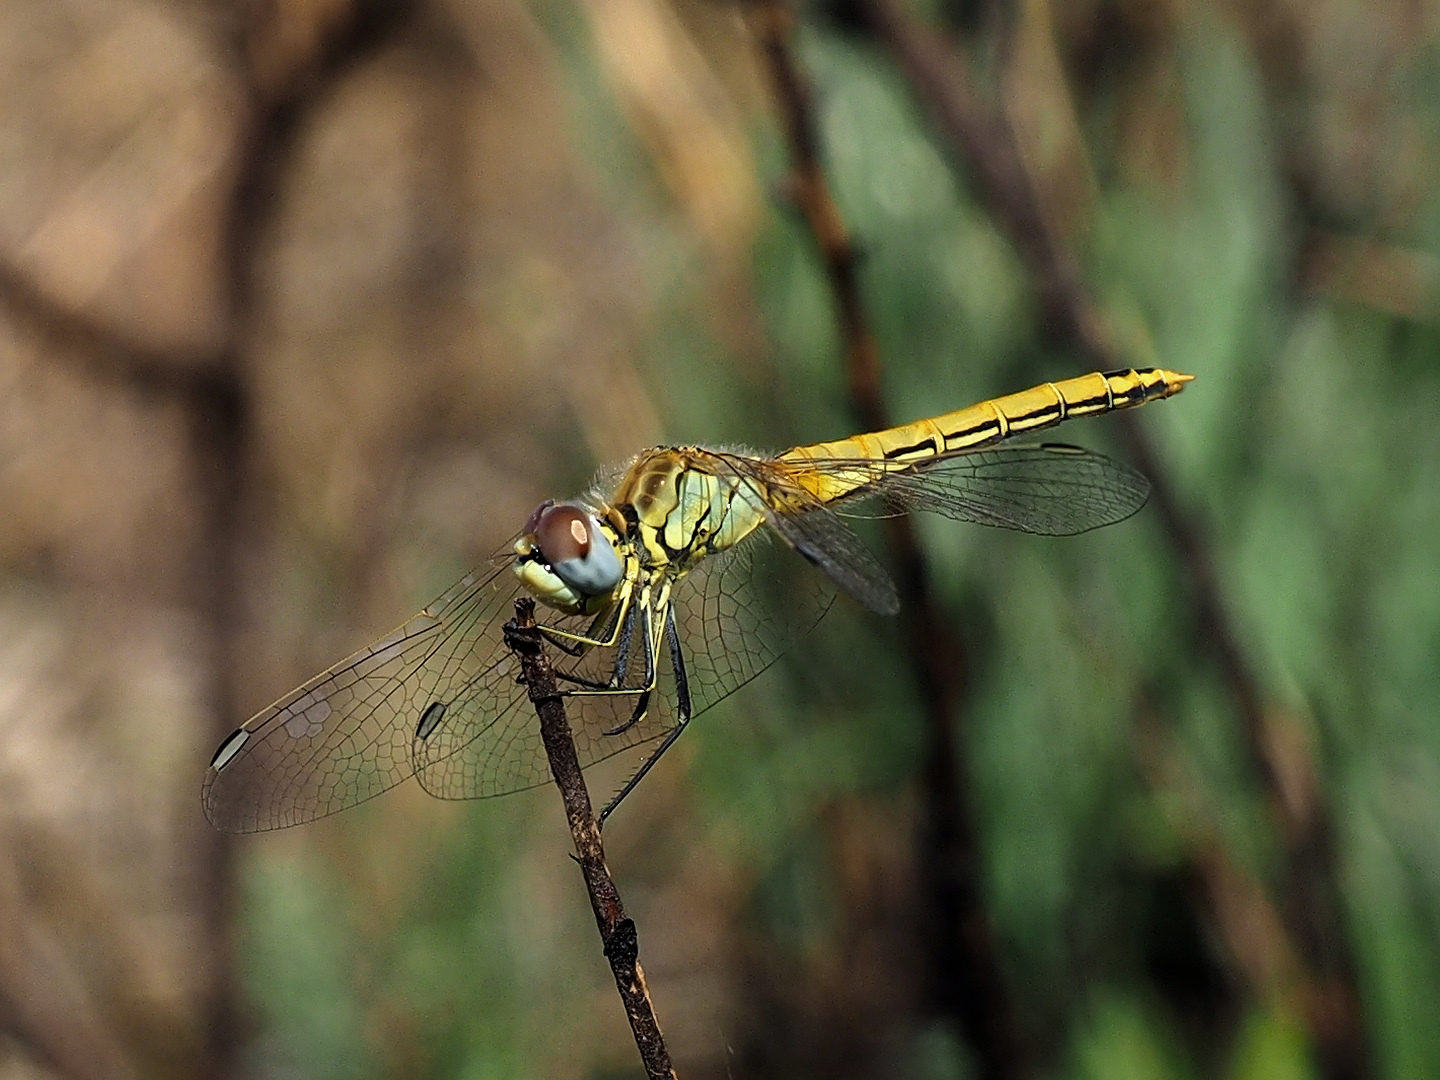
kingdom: Animalia
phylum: Arthropoda
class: Insecta
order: Odonata
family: Libellulidae
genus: Sympetrum
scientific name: Sympetrum fonscolombii
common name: Red-veined darter
